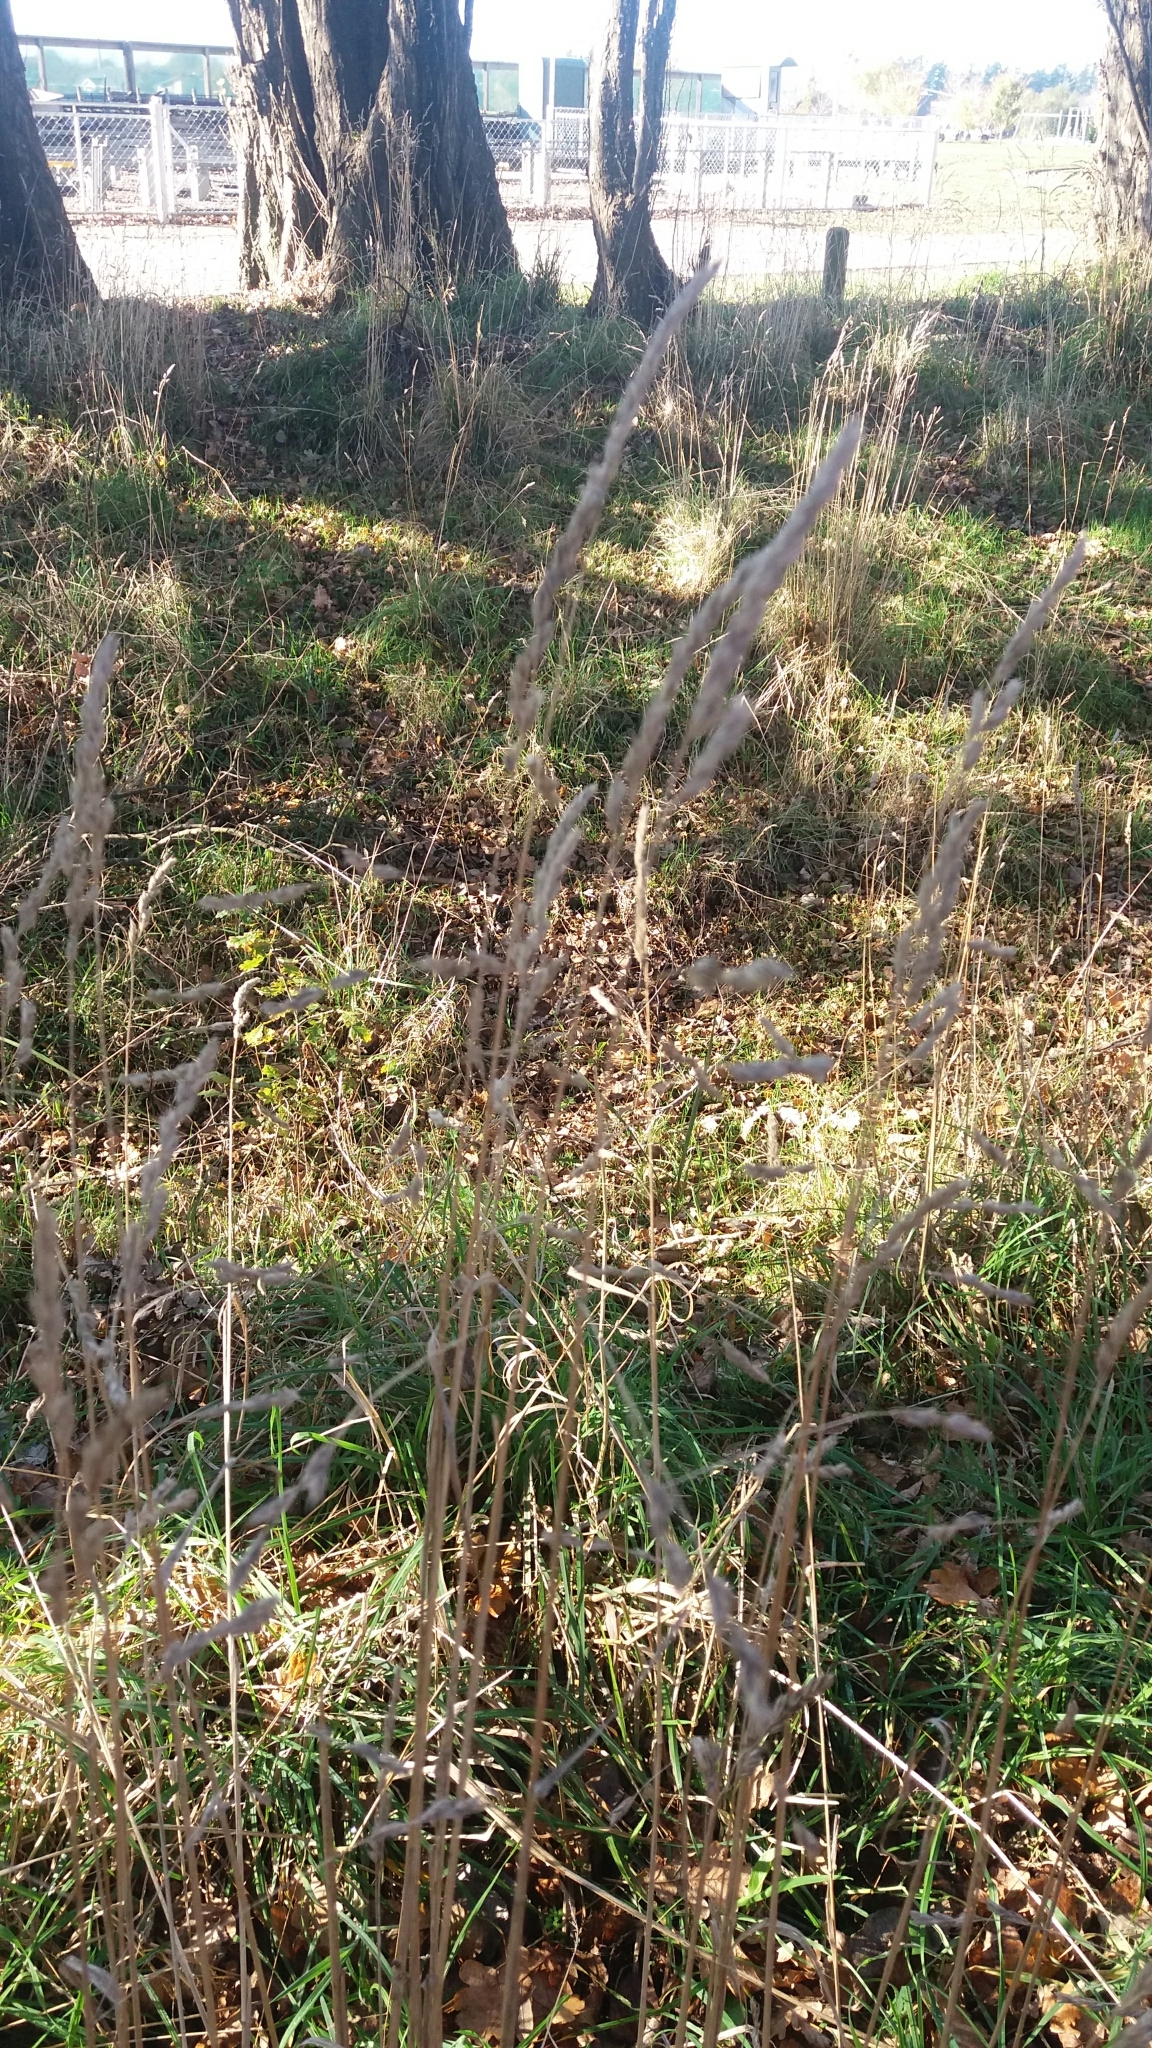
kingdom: Plantae
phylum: Tracheophyta
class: Liliopsida
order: Poales
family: Poaceae
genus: Dactylis
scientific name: Dactylis glomerata
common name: Orchardgrass
